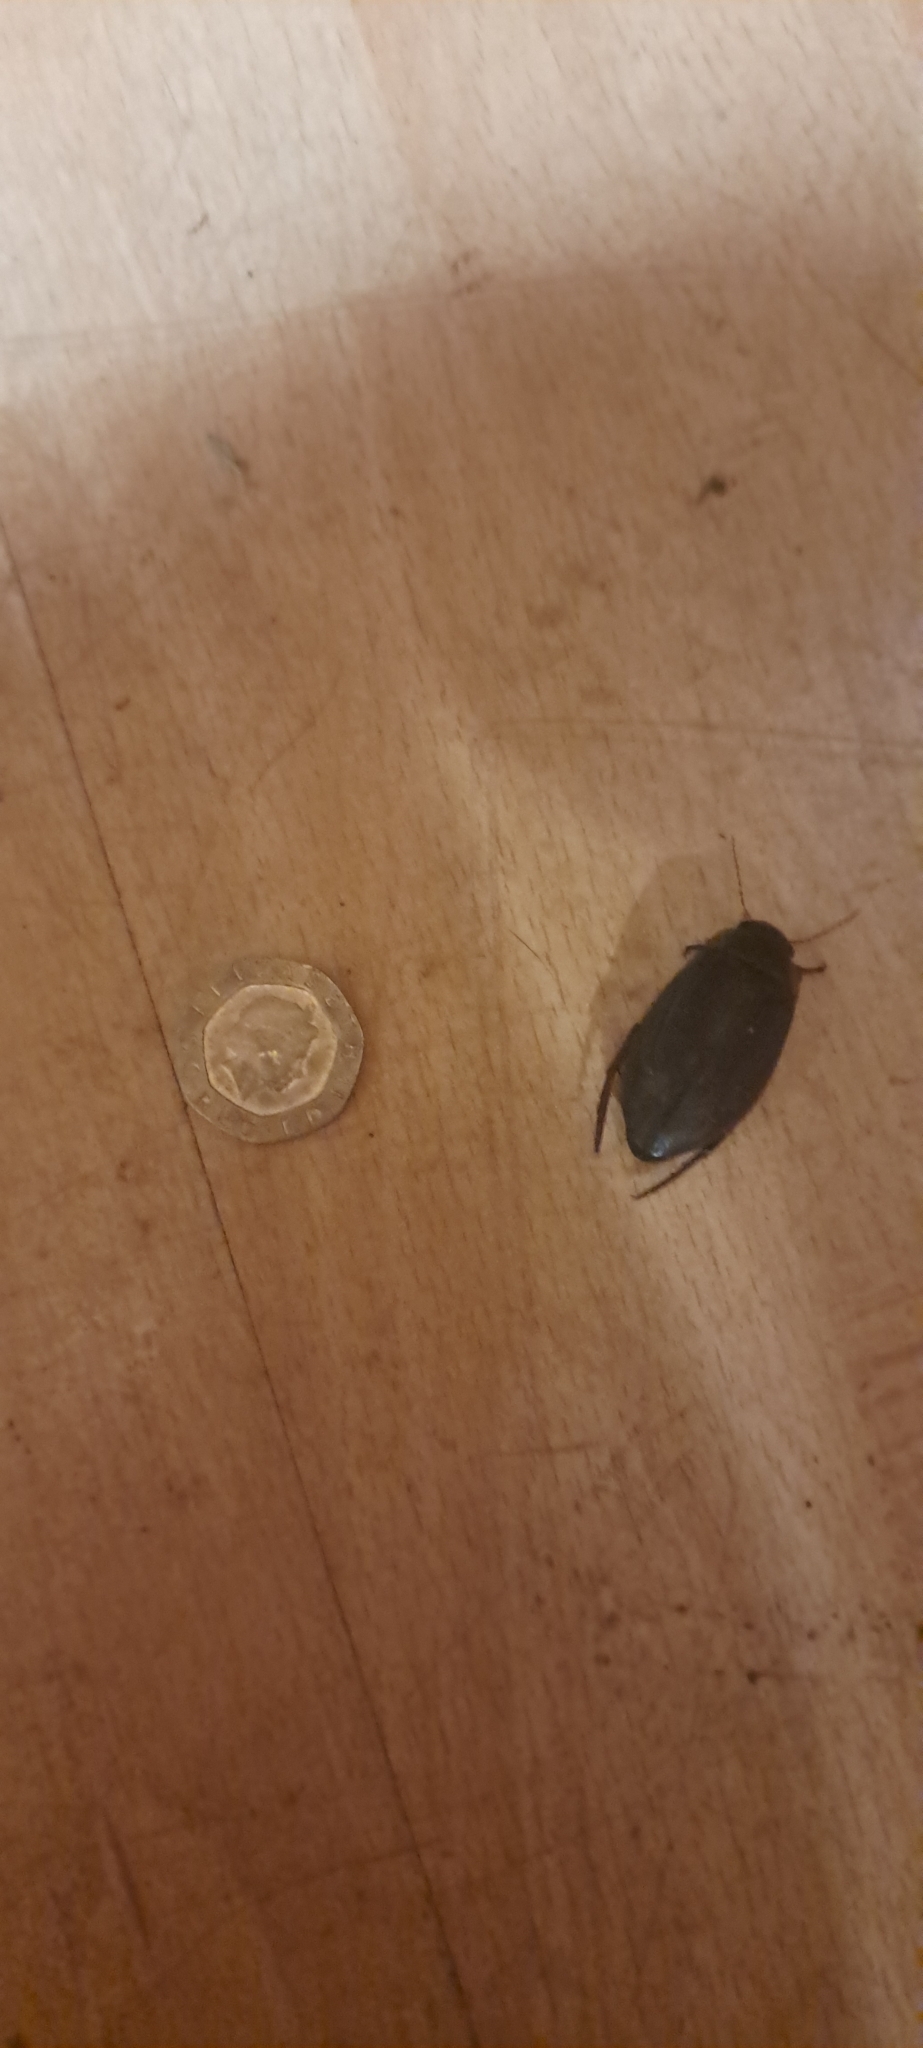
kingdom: Animalia
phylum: Arthropoda
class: Insecta
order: Coleoptera
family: Dytiscidae
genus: Dytiscus
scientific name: Dytiscus marginalis
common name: Great water beetle
